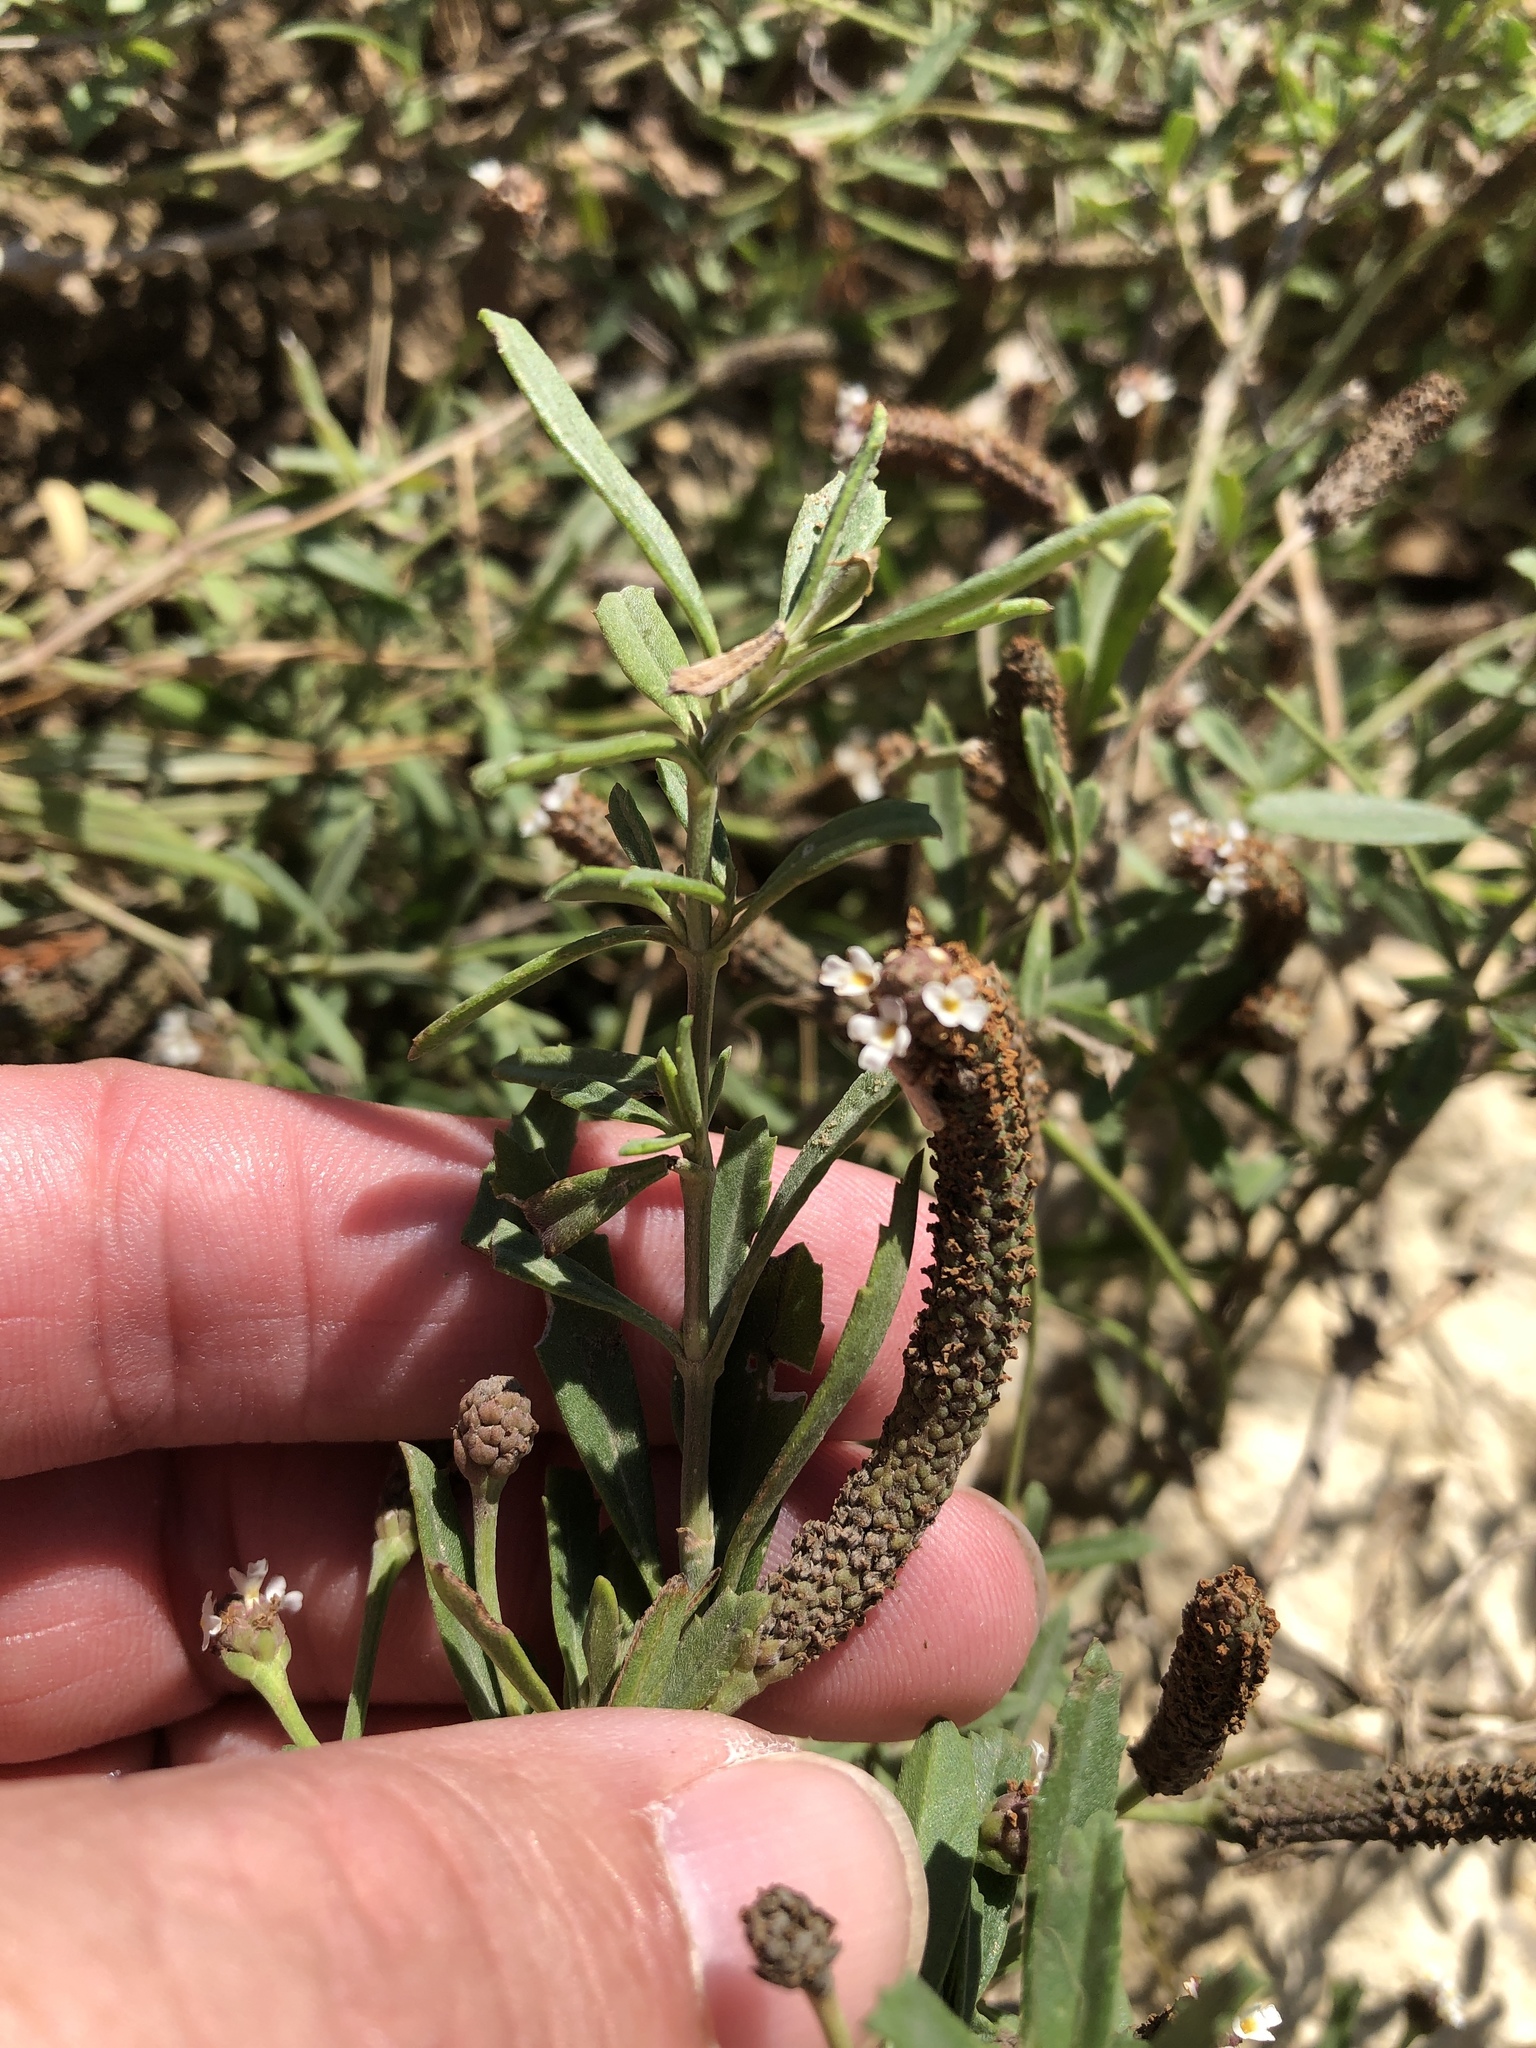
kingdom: Plantae
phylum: Tracheophyta
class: Magnoliopsida
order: Lamiales
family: Verbenaceae
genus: Phyla
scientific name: Phyla nodiflora
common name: Frogfruit
